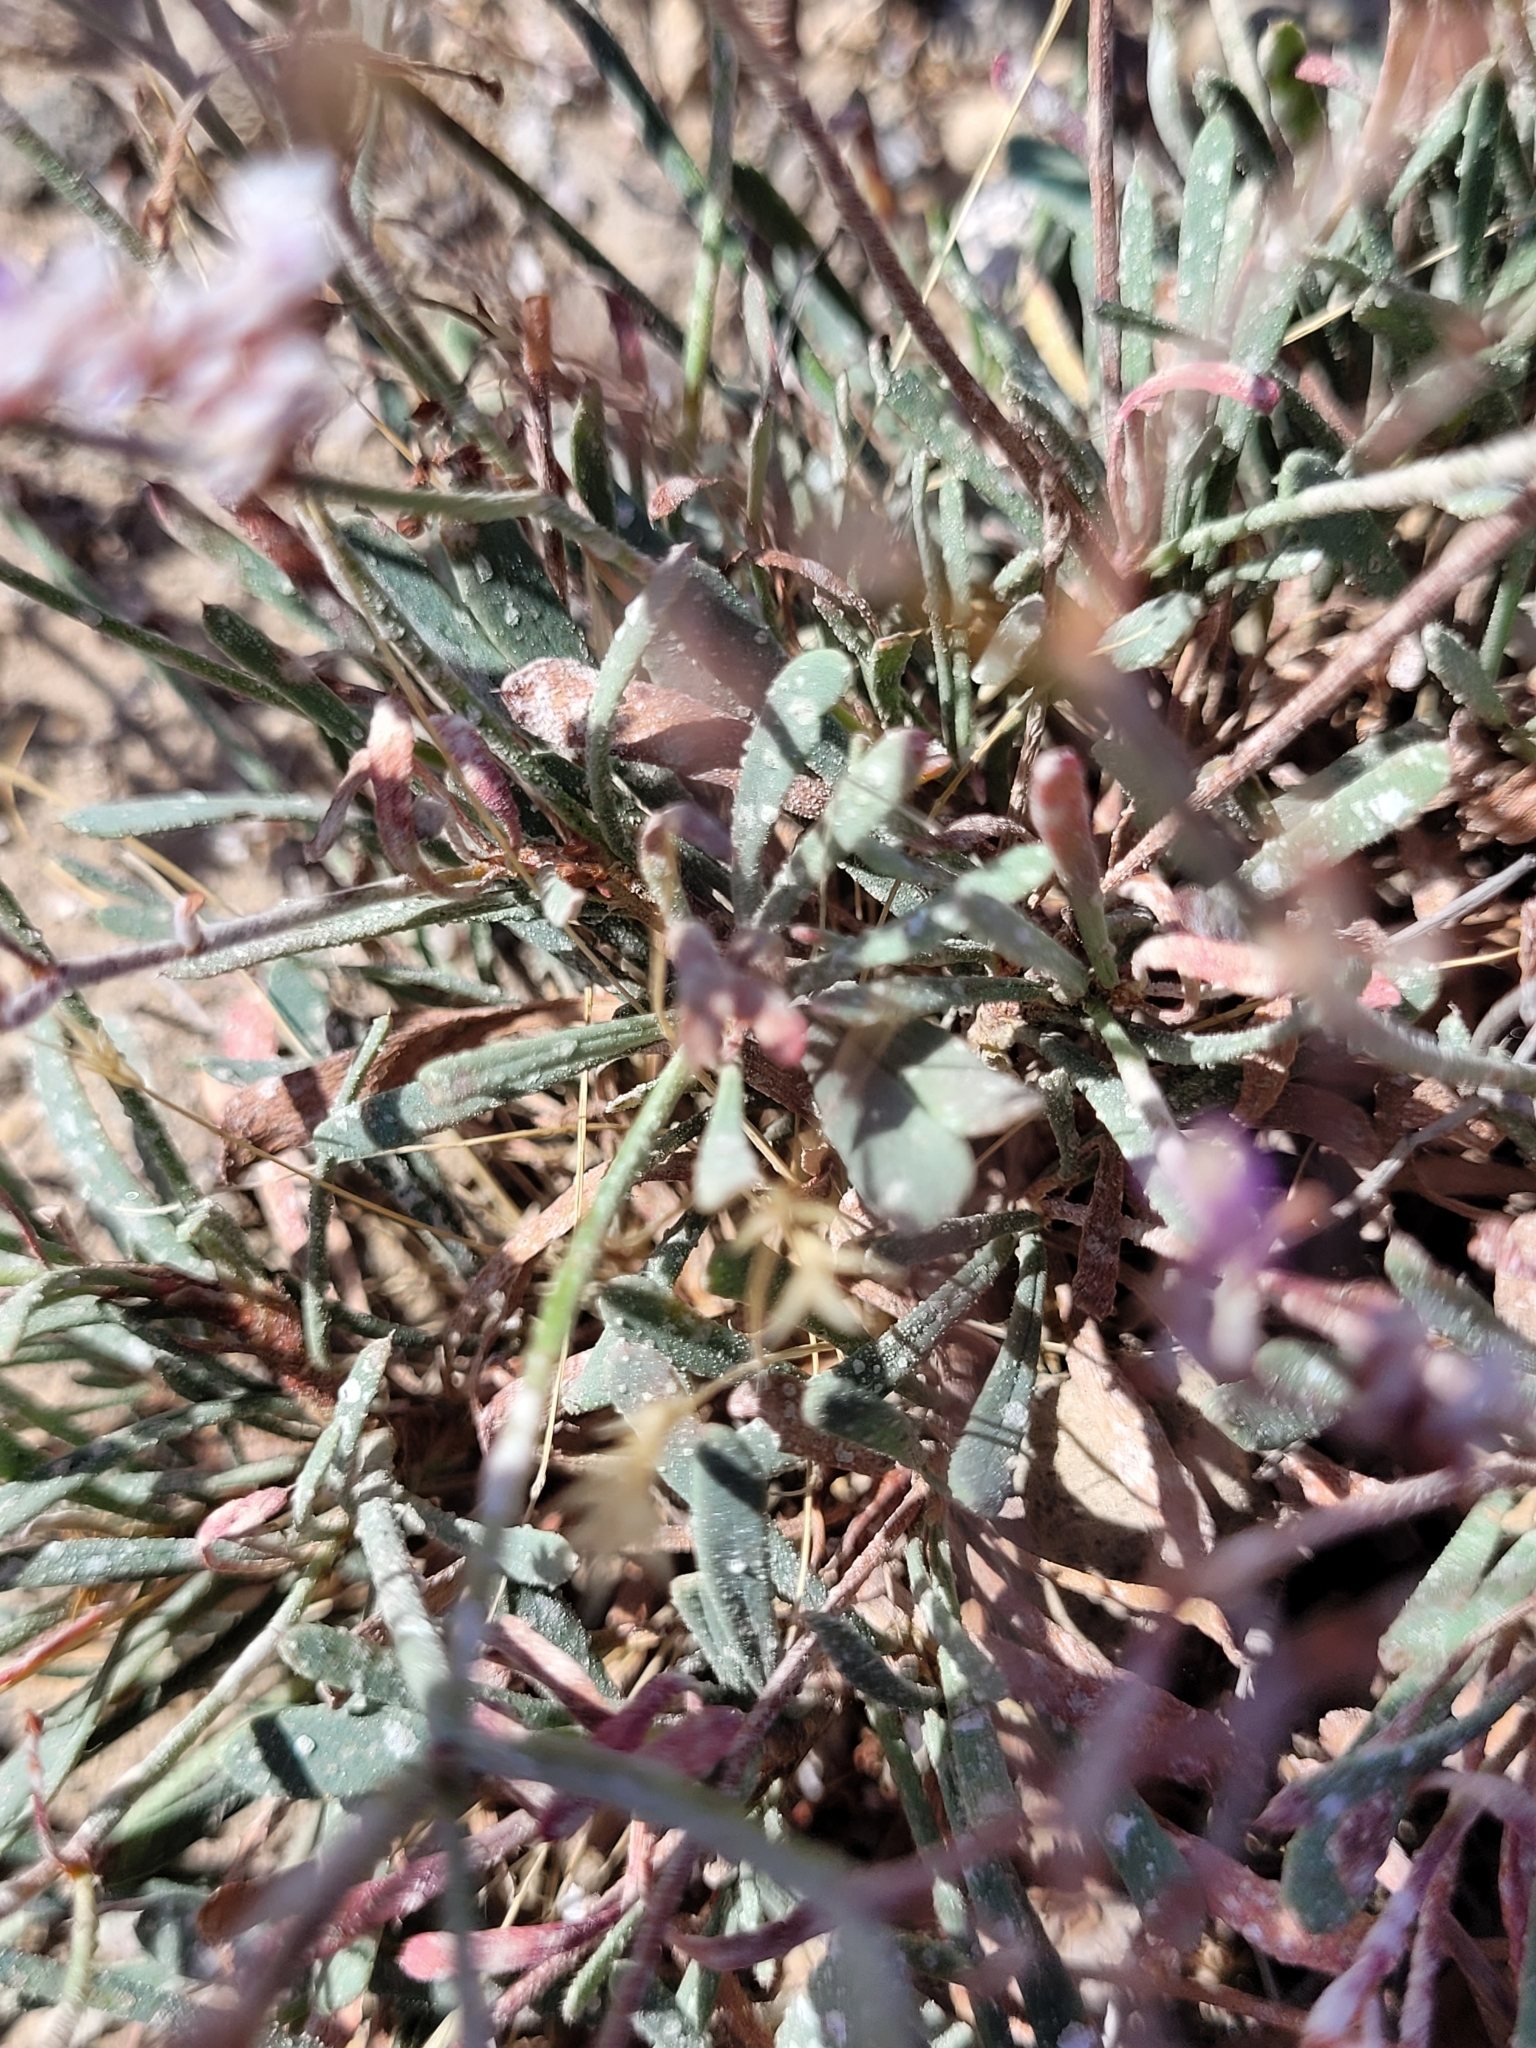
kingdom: Plantae
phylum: Tracheophyta
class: Magnoliopsida
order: Caryophyllales
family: Plumbaginaceae
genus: Limonium
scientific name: Limonium pectinatum
